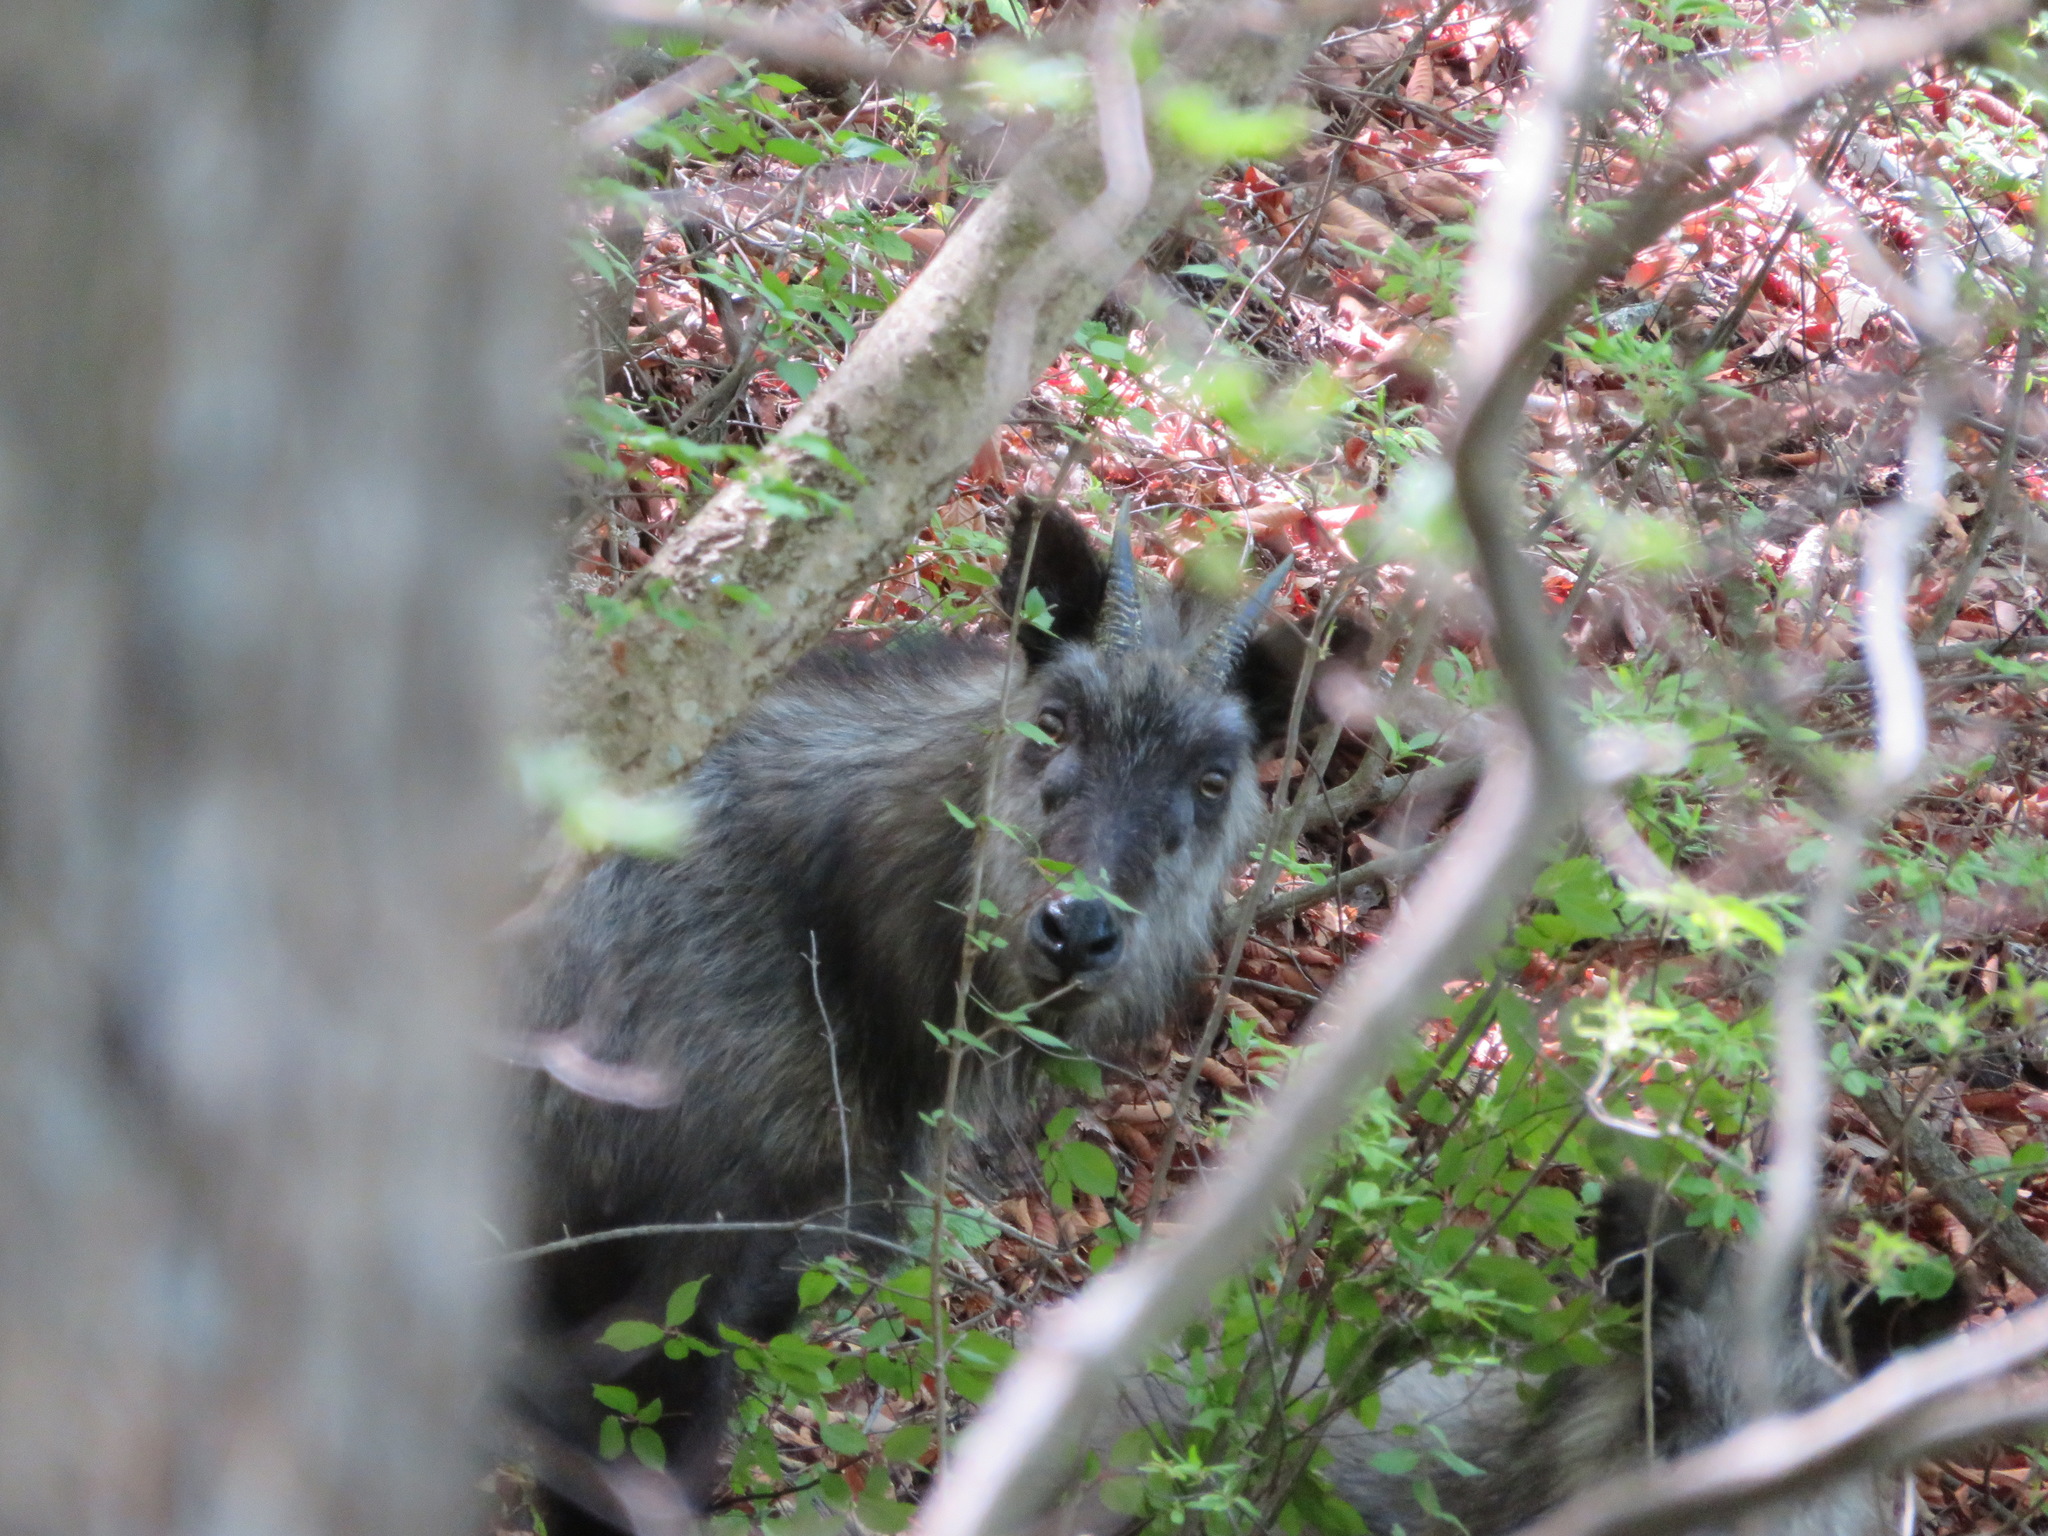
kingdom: Animalia
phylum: Chordata
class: Mammalia
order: Artiodactyla
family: Bovidae
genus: Capricornis
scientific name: Capricornis crispus
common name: Japanese serow
